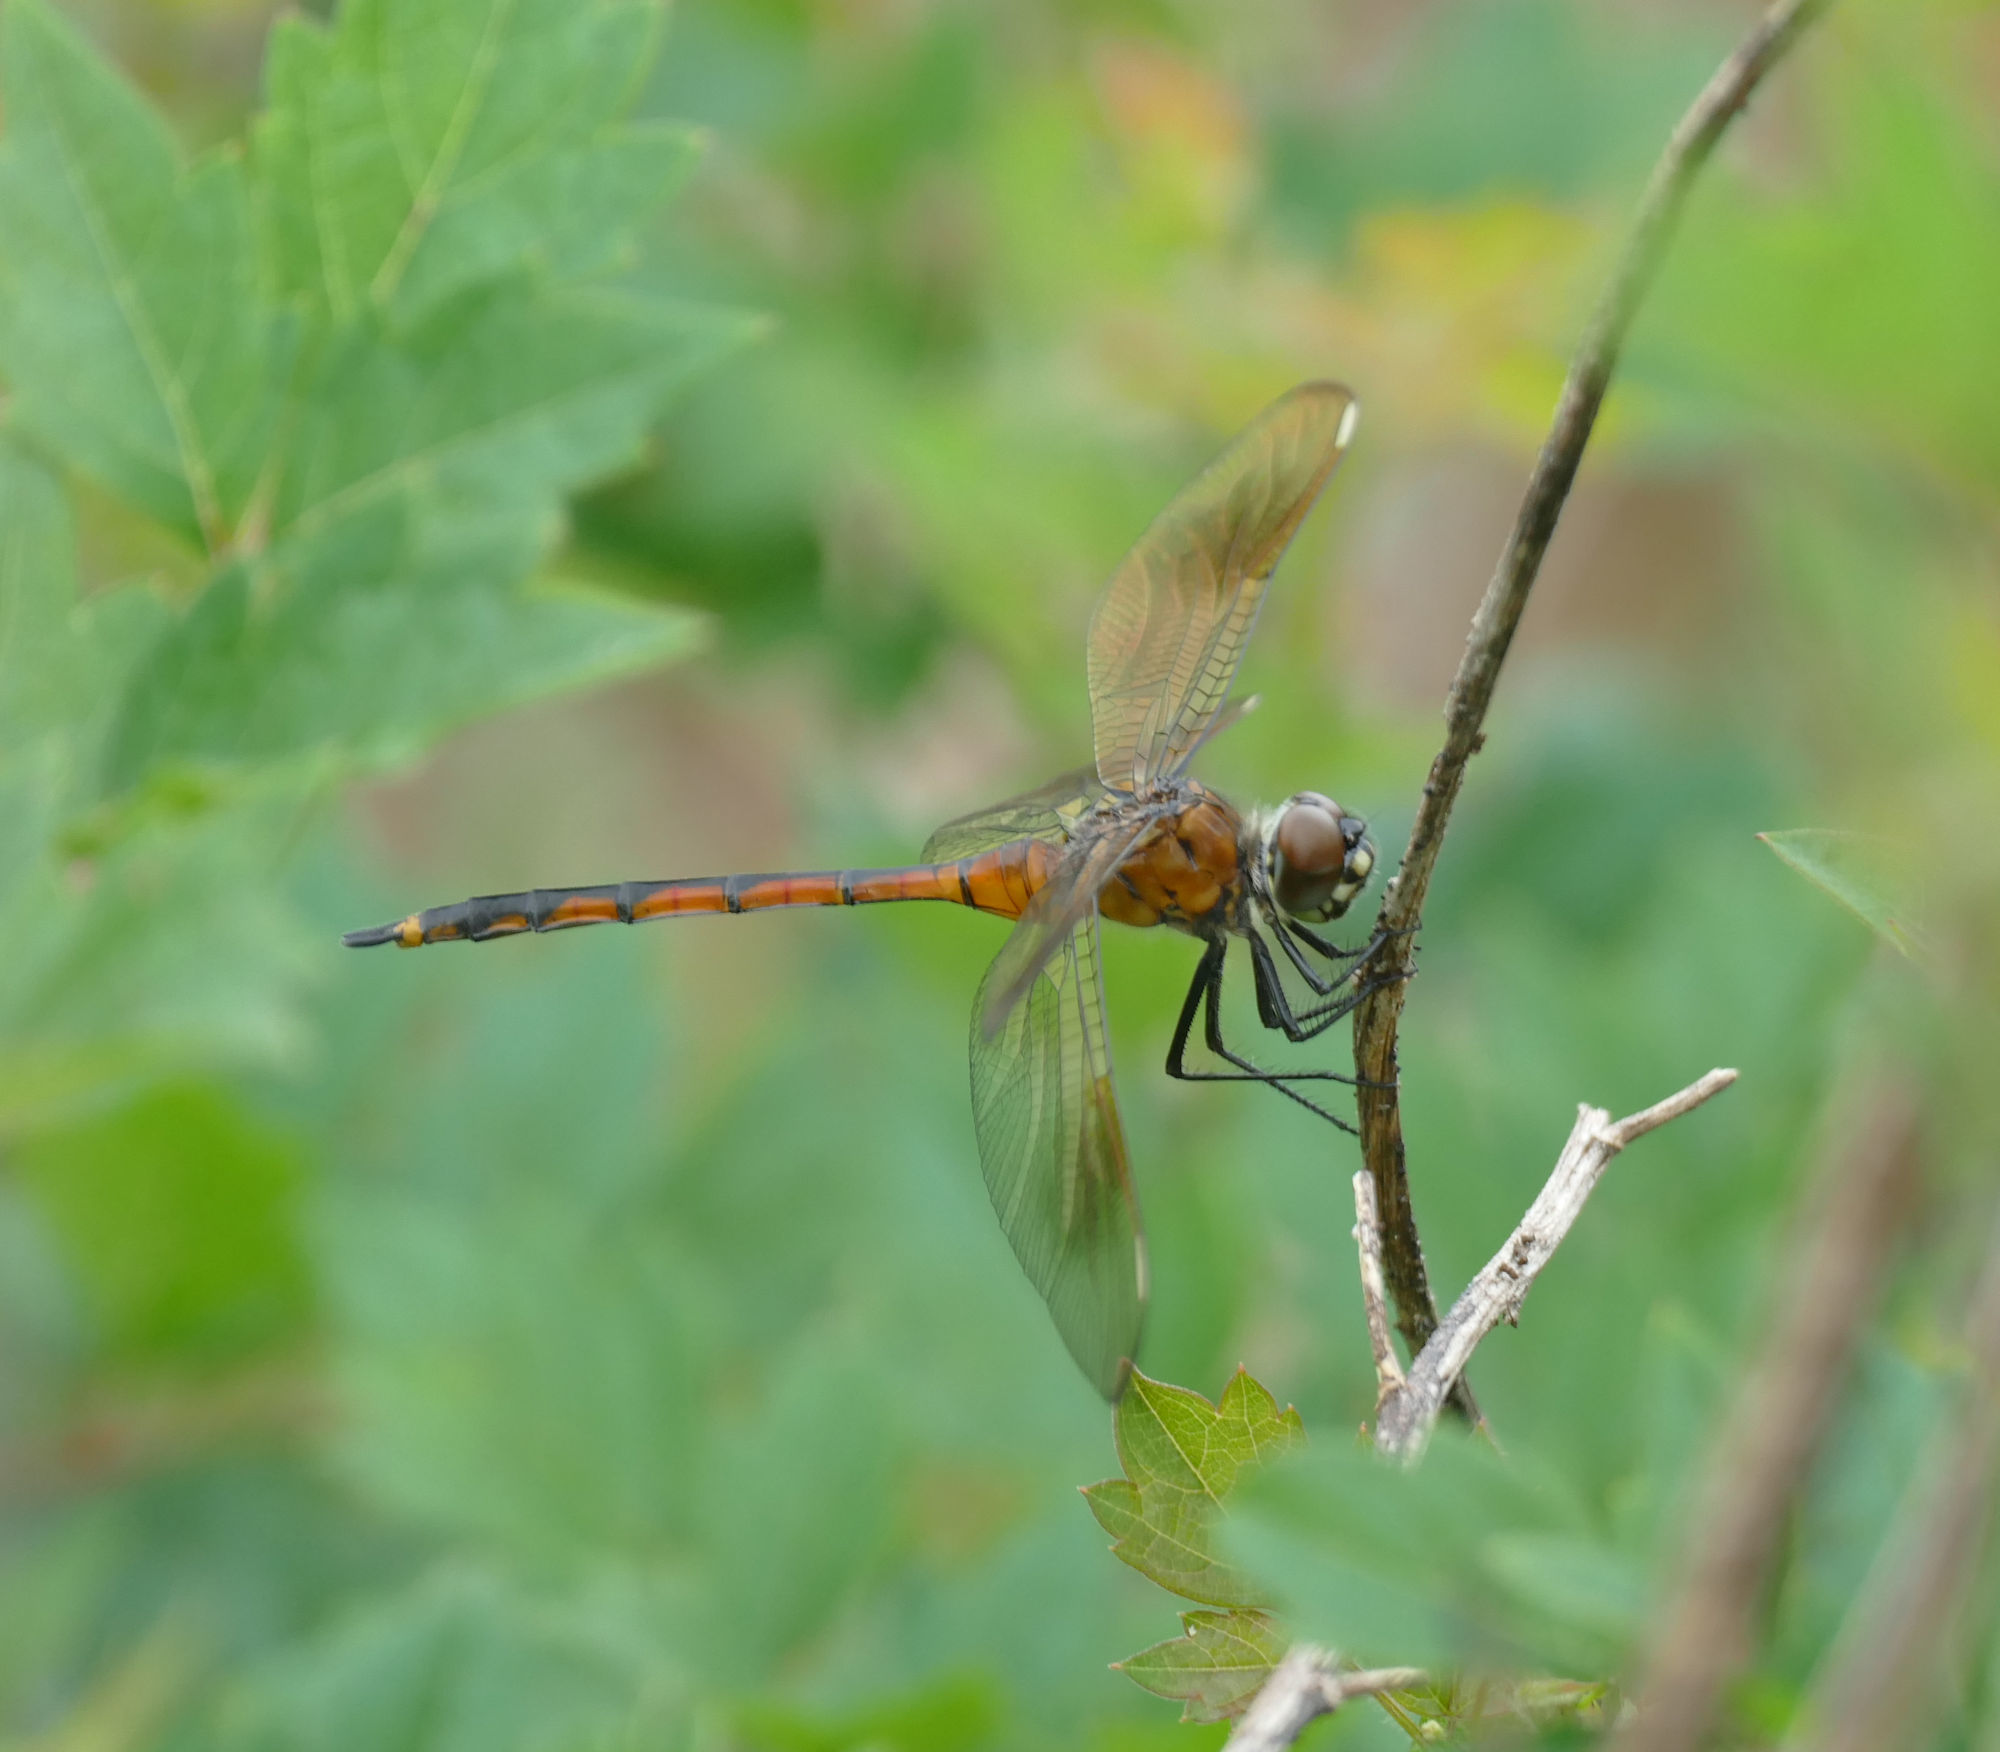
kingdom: Animalia
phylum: Arthropoda
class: Insecta
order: Odonata
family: Libellulidae
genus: Brachymesia
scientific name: Brachymesia gravida
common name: Four-spotted pennant
